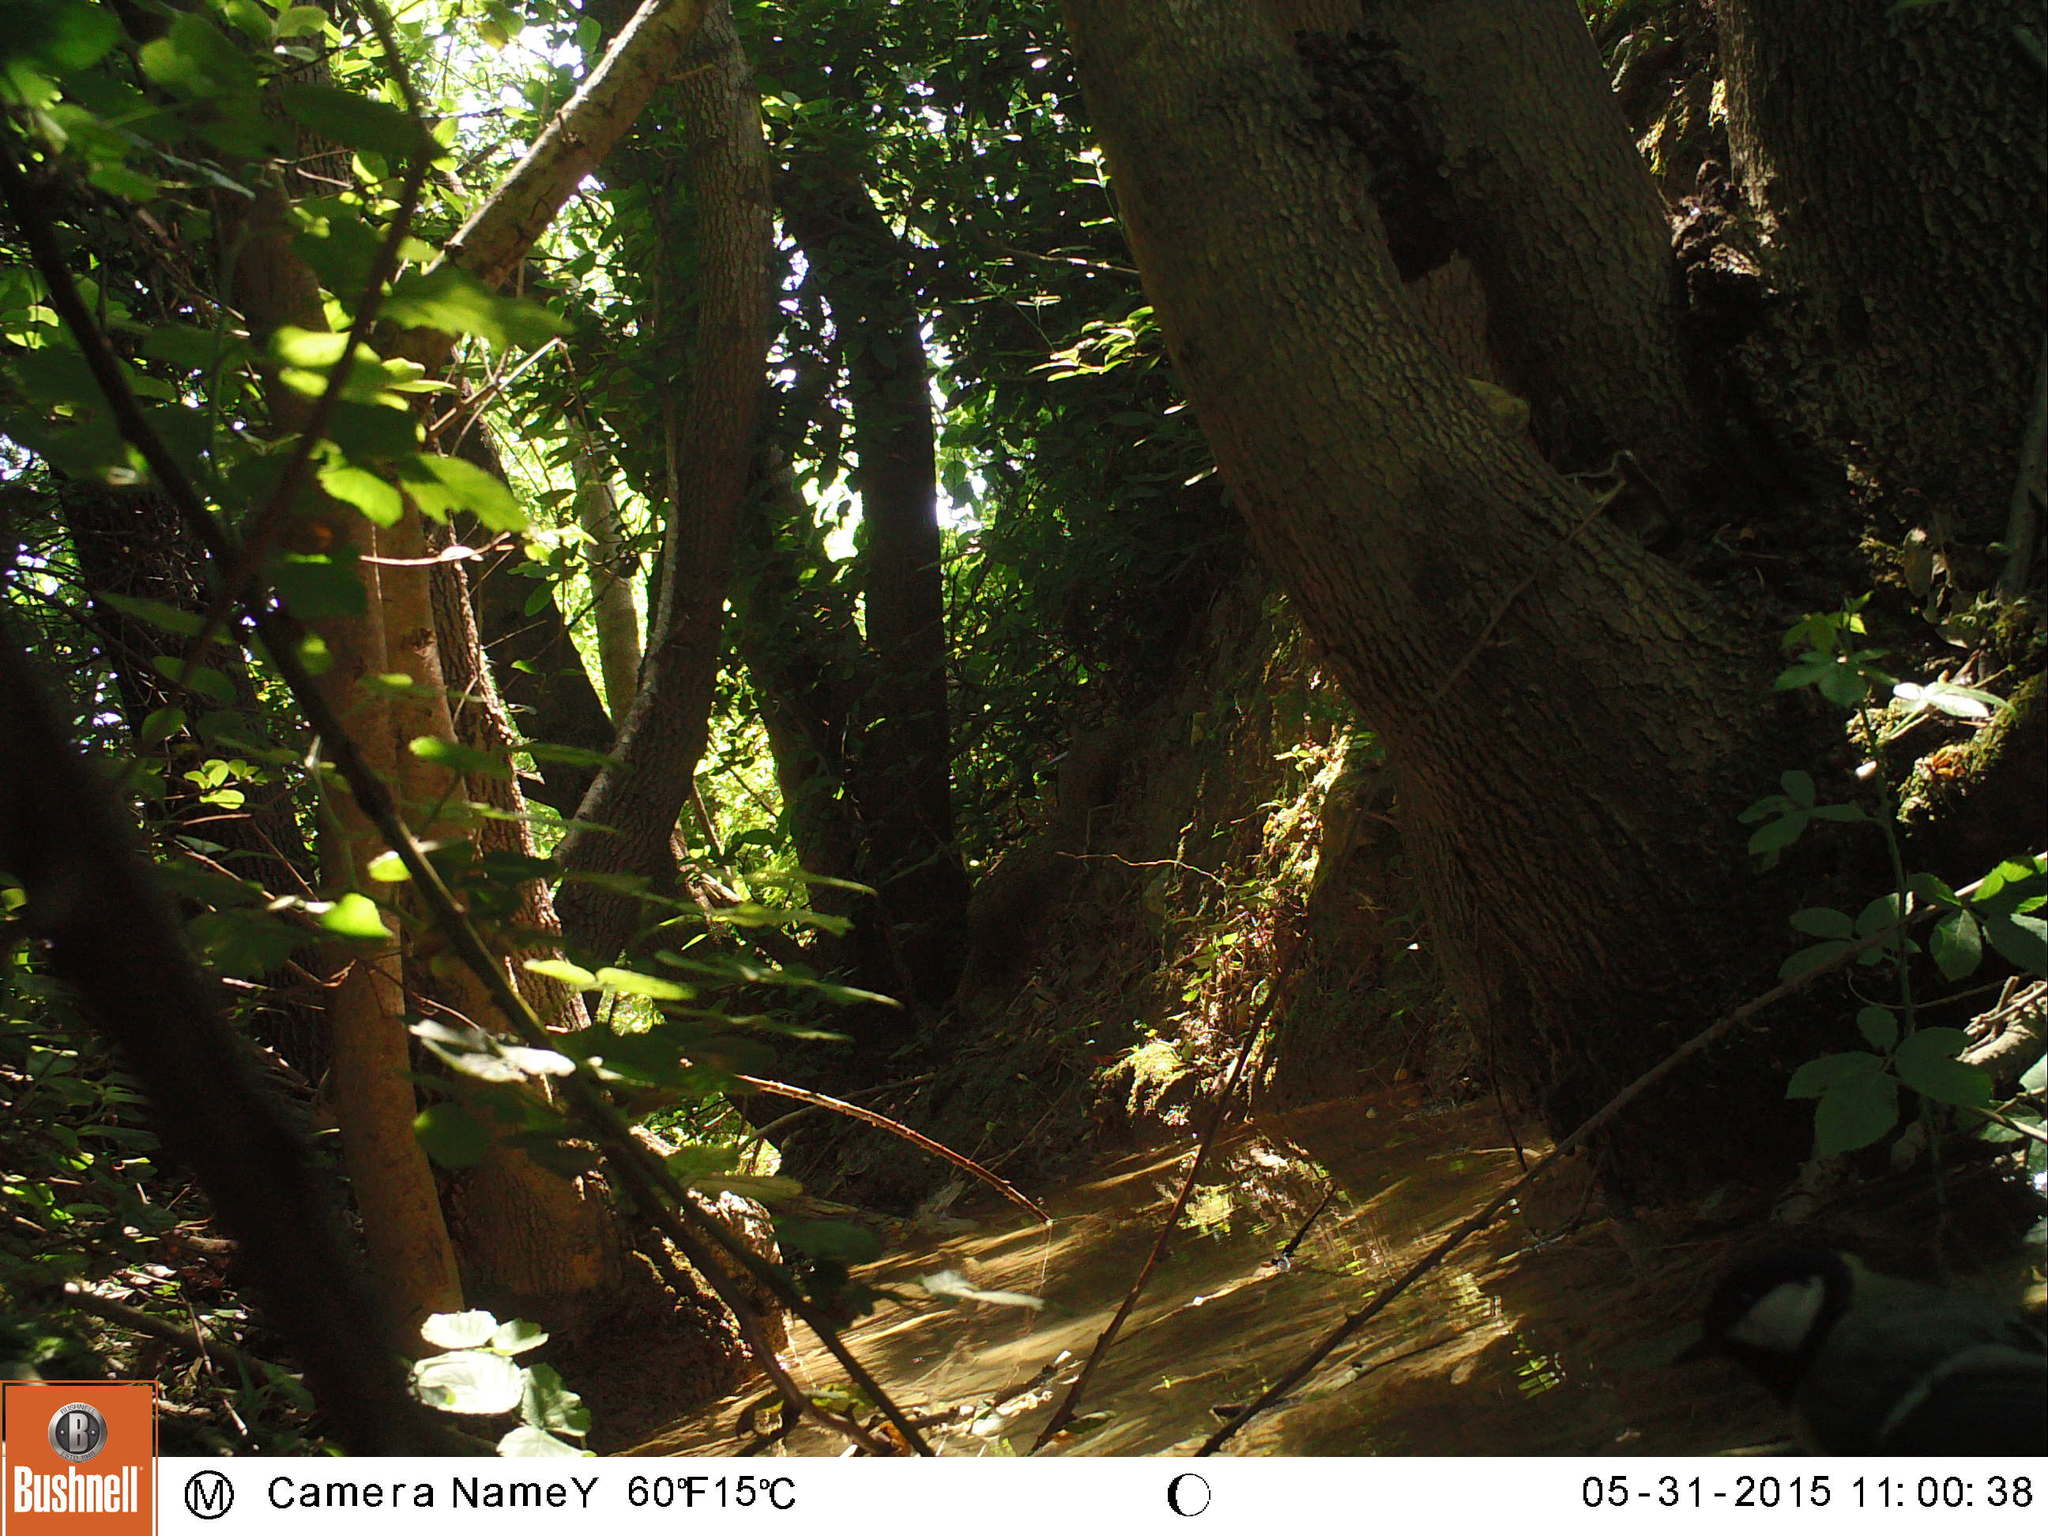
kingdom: Animalia
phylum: Chordata
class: Aves
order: Passeriformes
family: Paridae
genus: Parus
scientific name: Parus major
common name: Great tit
